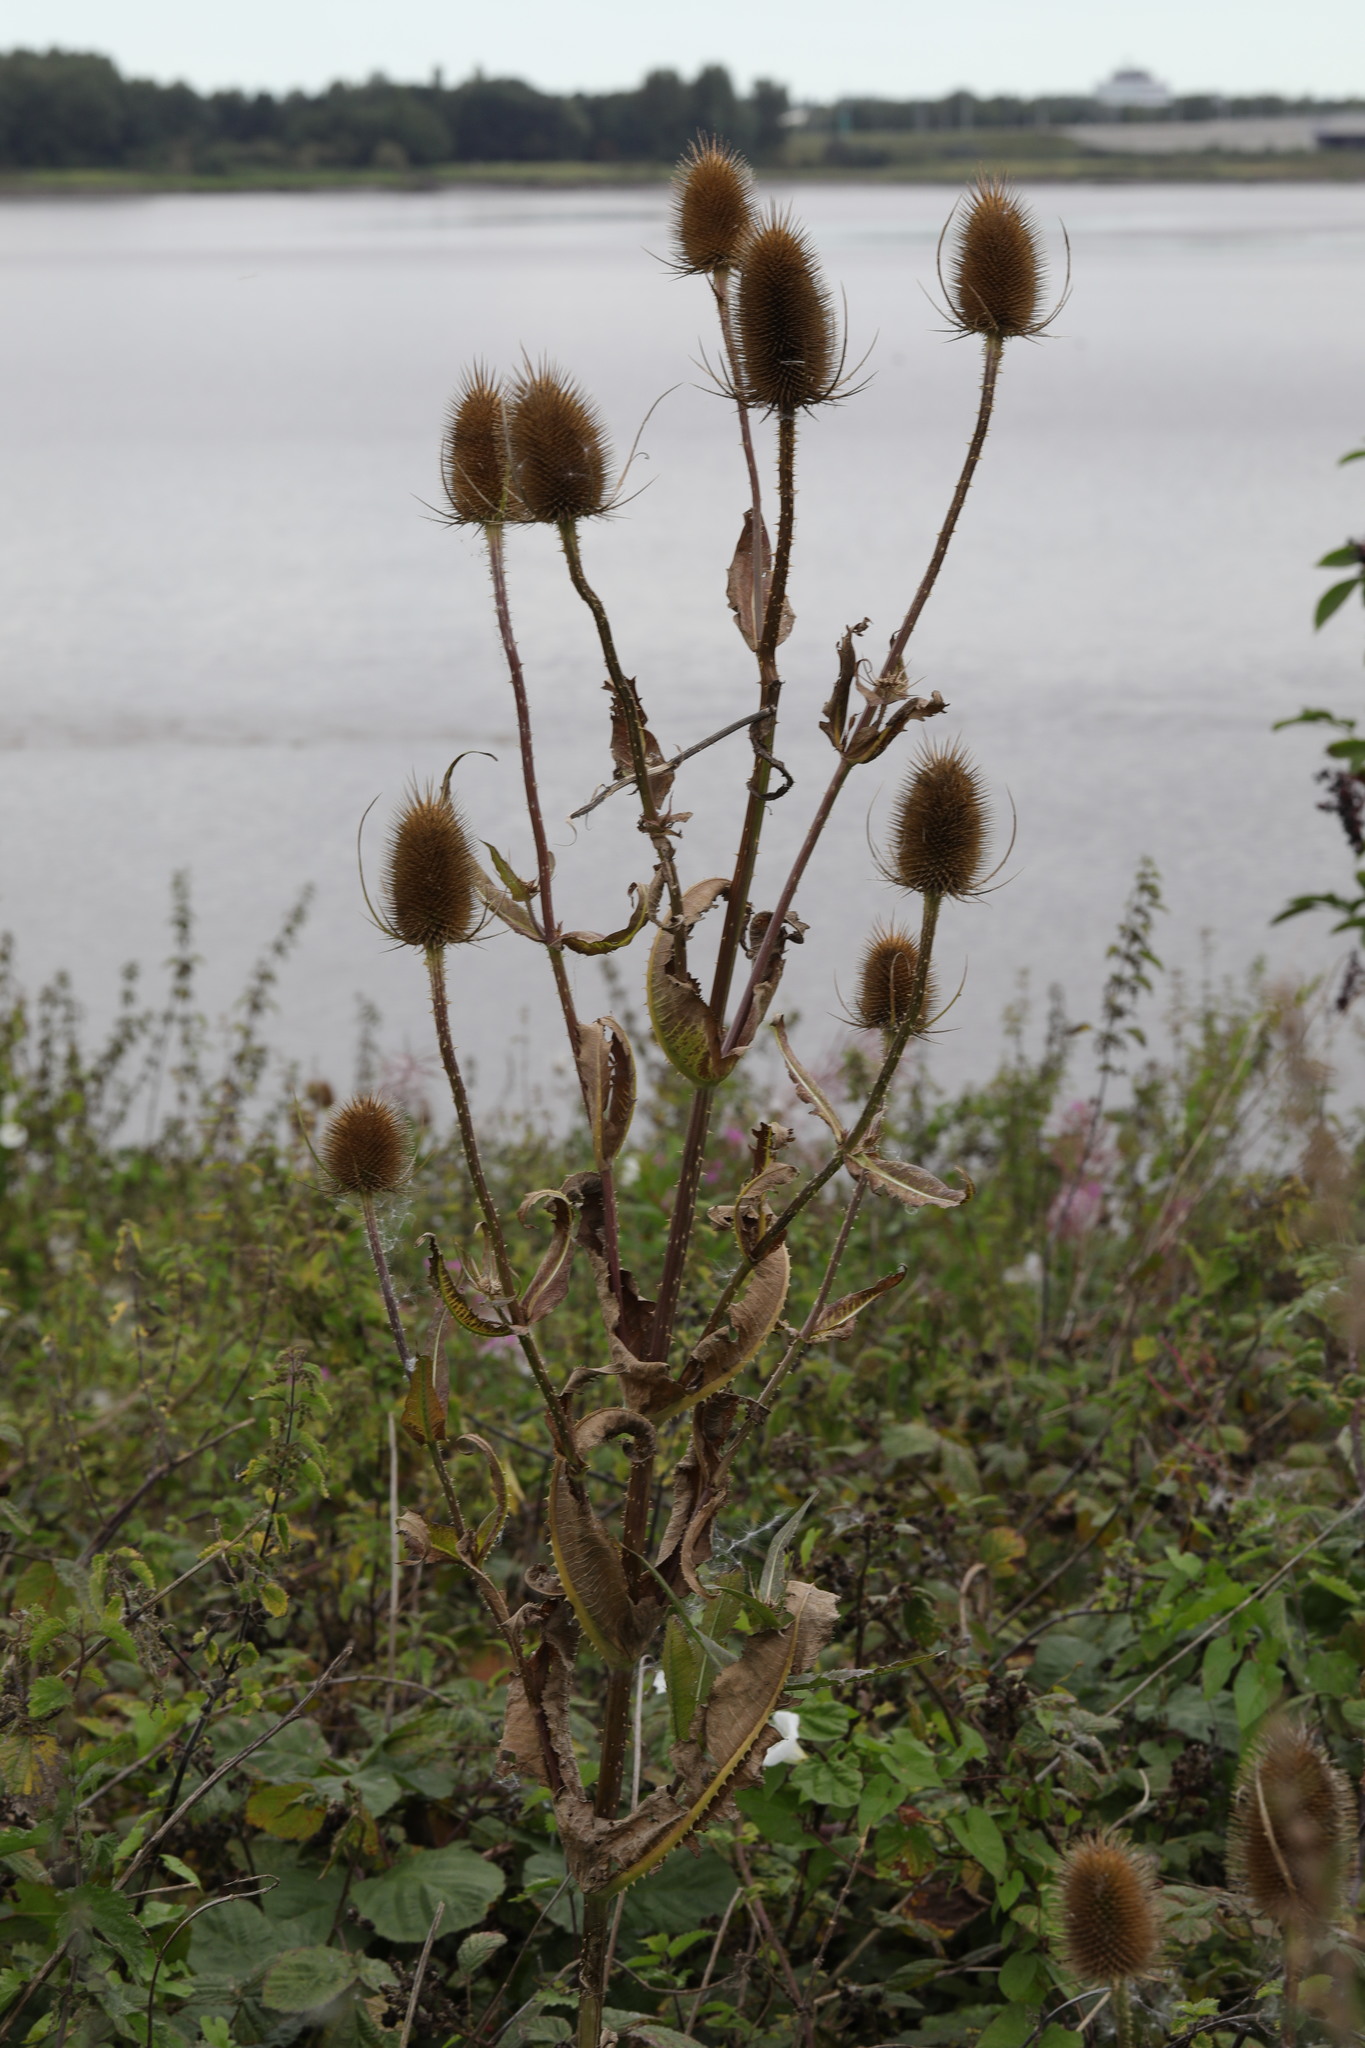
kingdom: Plantae
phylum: Tracheophyta
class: Magnoliopsida
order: Dipsacales
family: Caprifoliaceae
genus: Dipsacus
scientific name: Dipsacus fullonum
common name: Teasel
